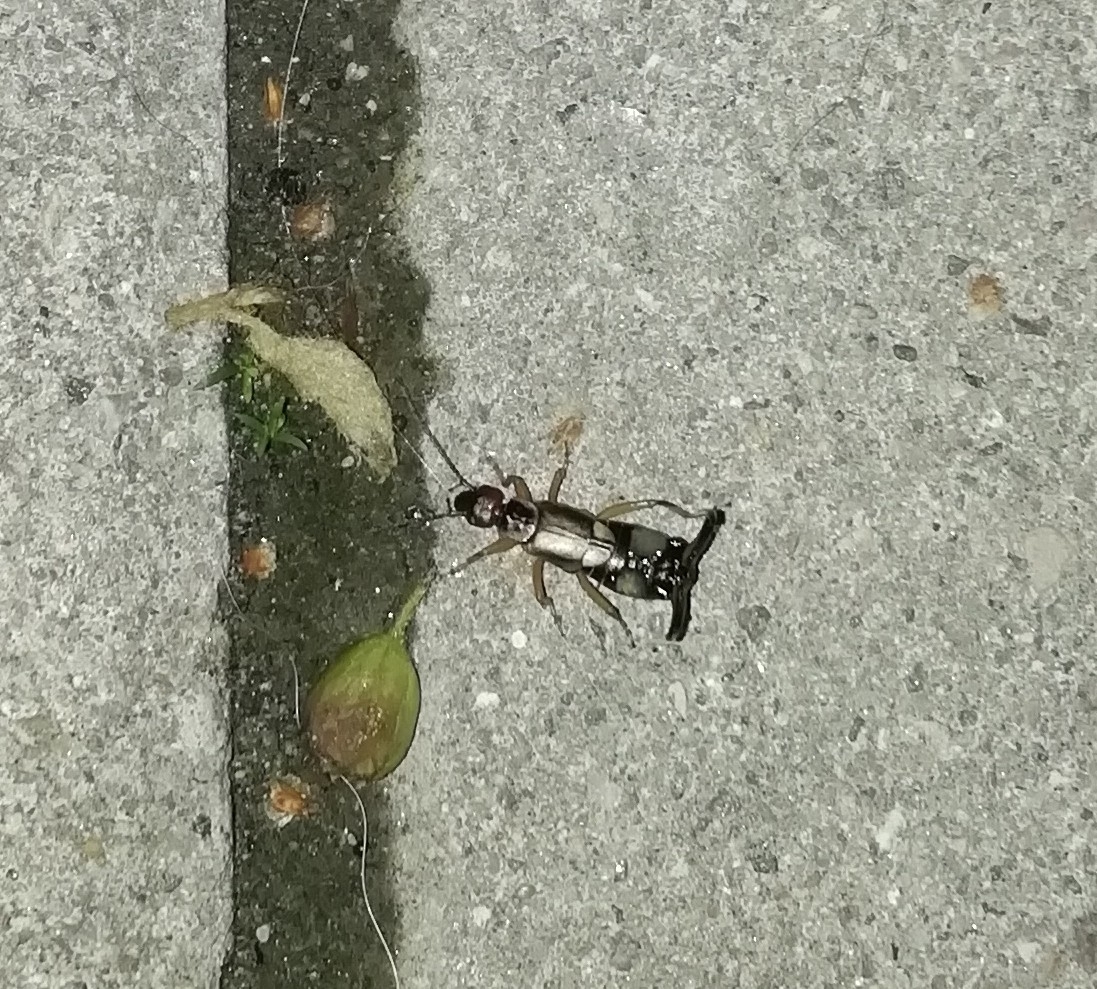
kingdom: Animalia
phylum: Arthropoda
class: Insecta
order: Dermaptera
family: Forficulidae
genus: Forficula
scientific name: Forficula
